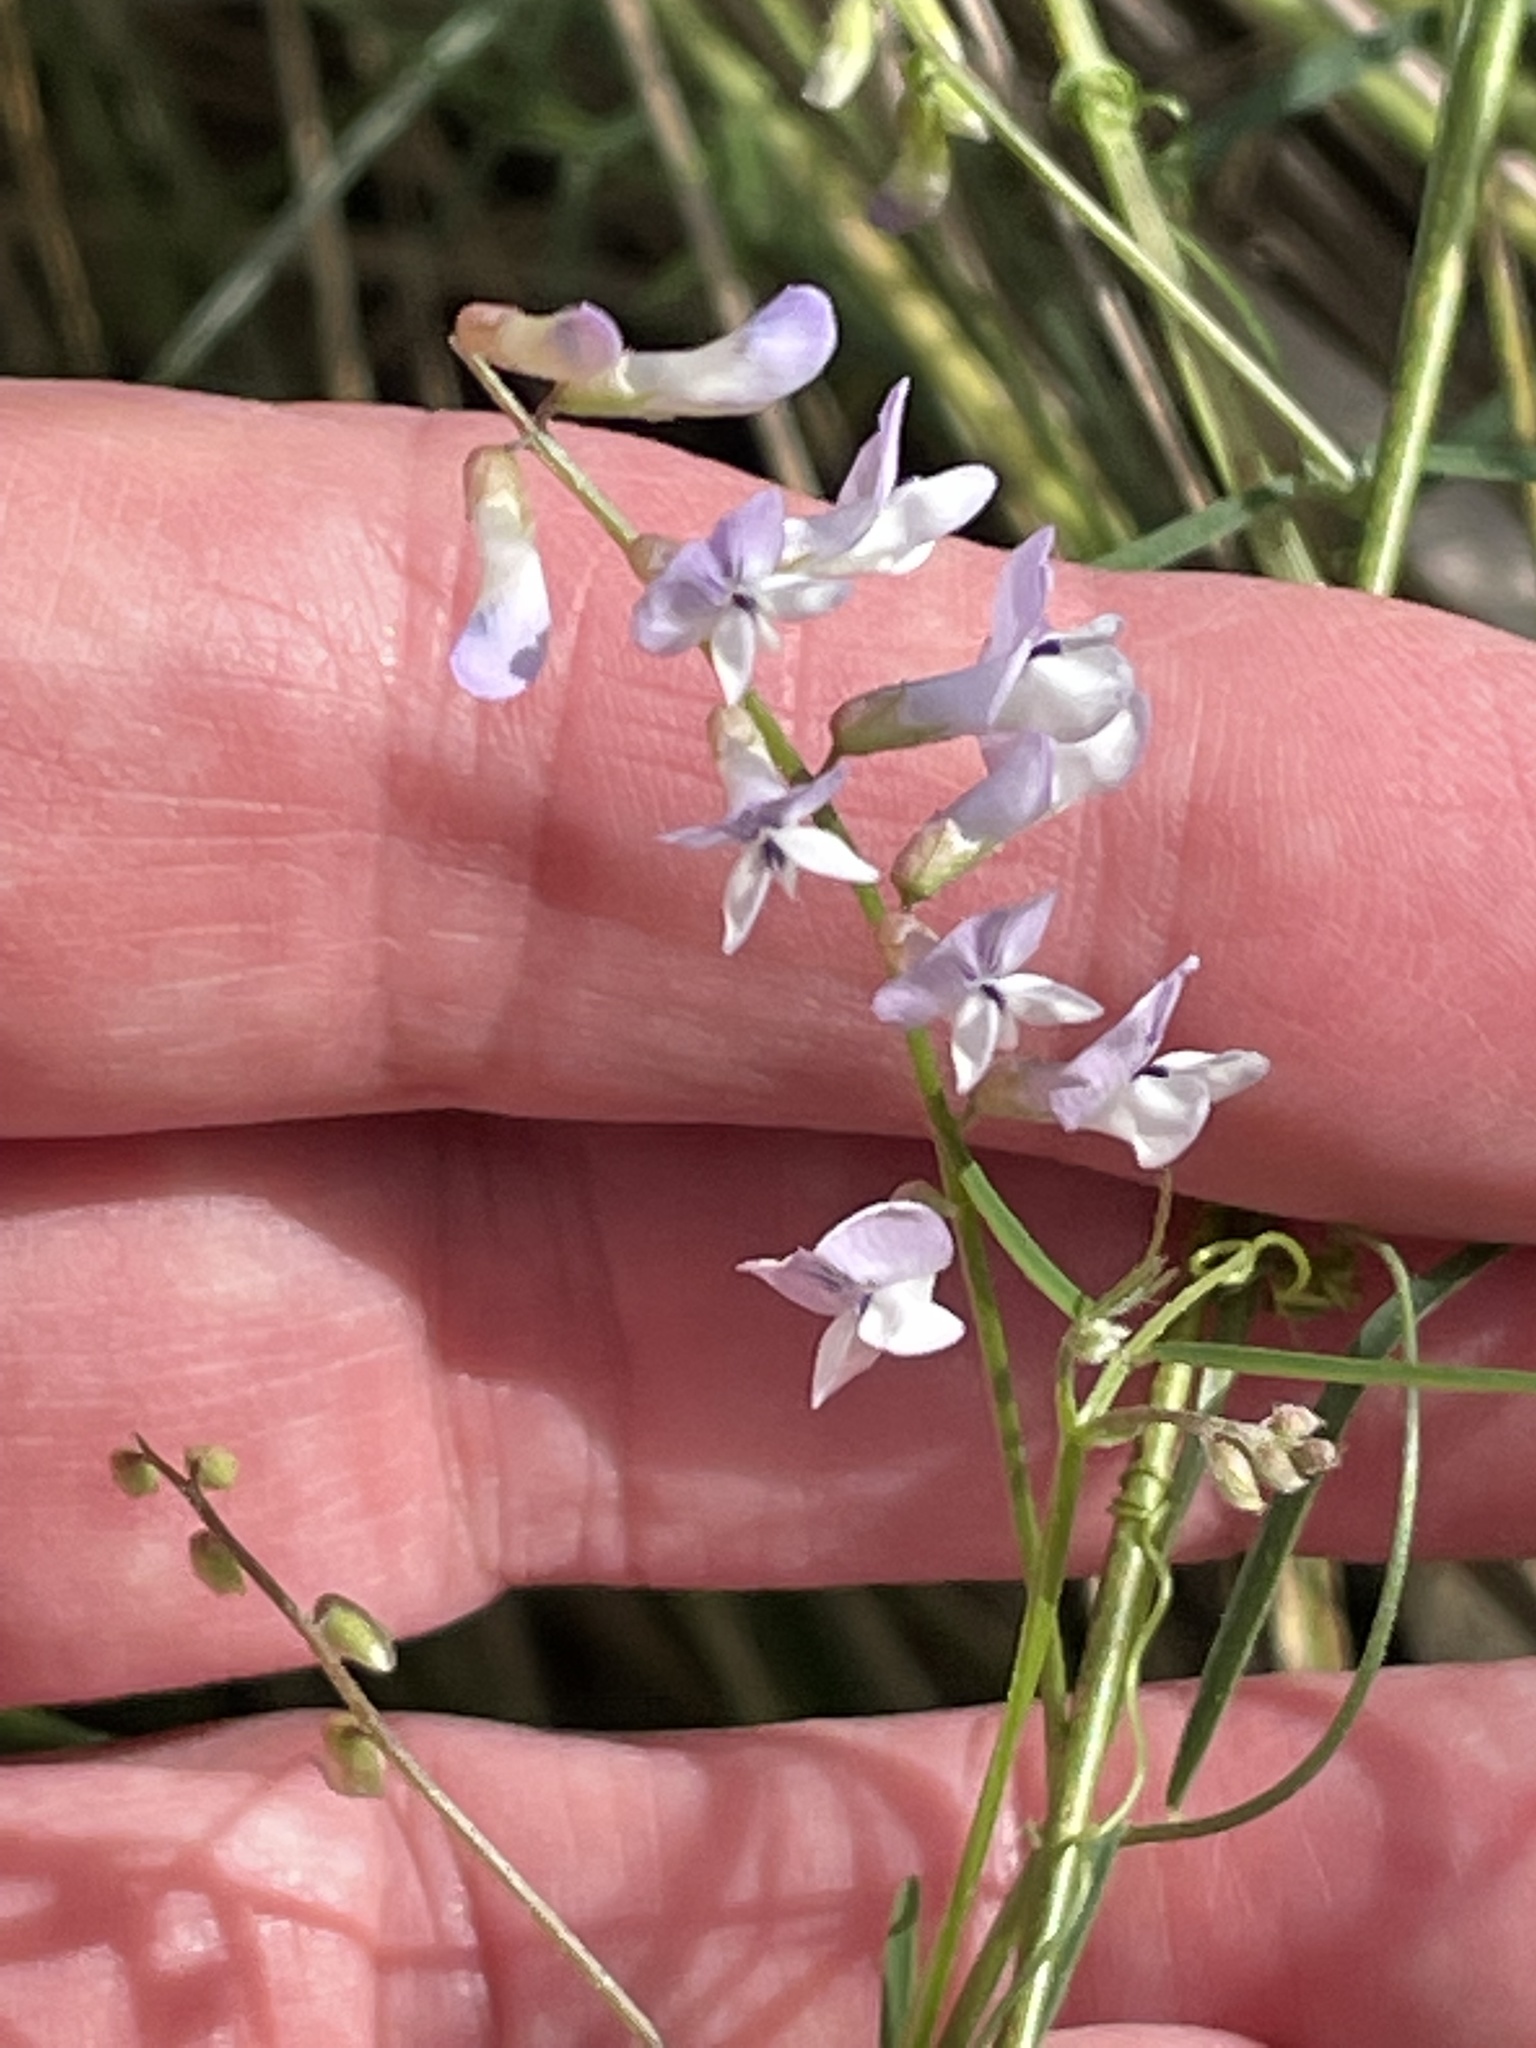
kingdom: Plantae
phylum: Tracheophyta
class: Magnoliopsida
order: Fabales
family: Fabaceae
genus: Vicia
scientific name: Vicia acutifolia
